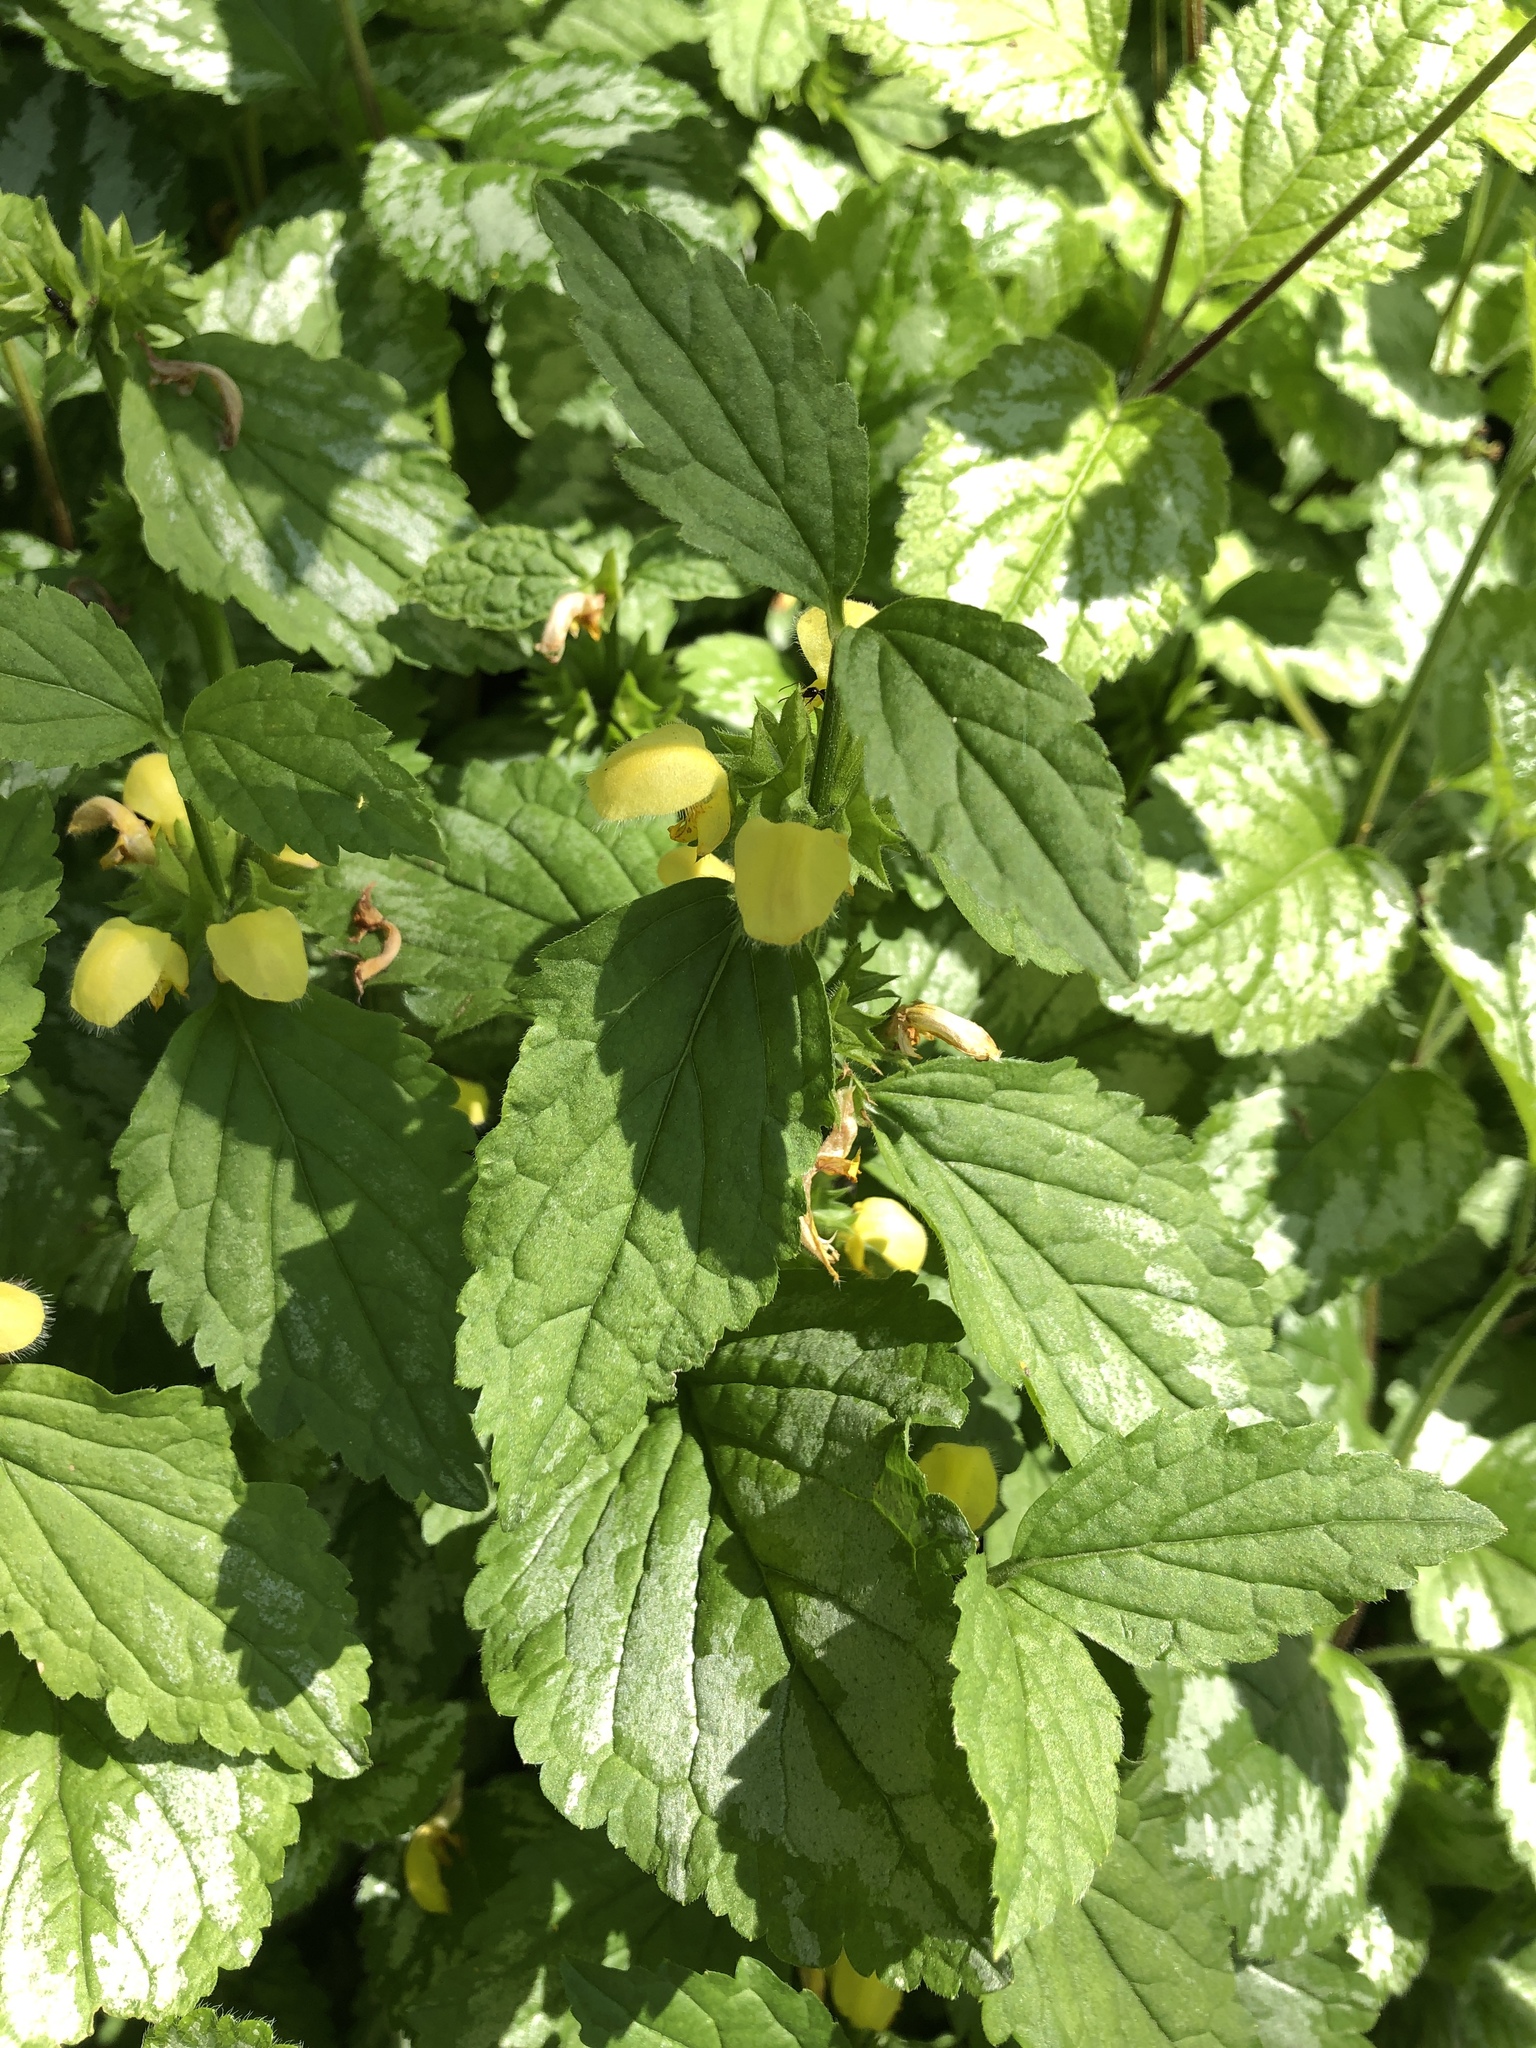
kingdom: Plantae
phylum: Tracheophyta
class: Magnoliopsida
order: Lamiales
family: Lamiaceae
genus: Lamium
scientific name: Lamium galeobdolon
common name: Yellow archangel
